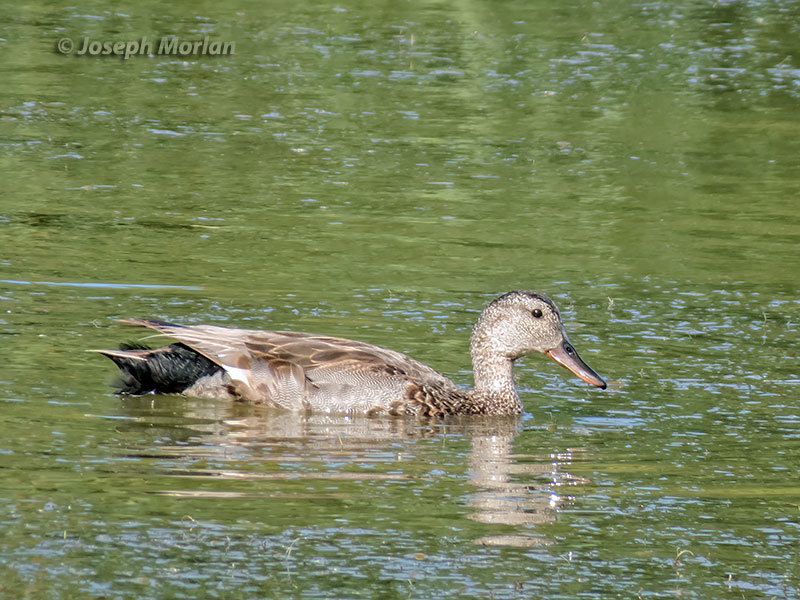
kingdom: Animalia
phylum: Chordata
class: Aves
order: Anseriformes
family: Anatidae
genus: Mareca
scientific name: Mareca strepera
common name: Gadwall
